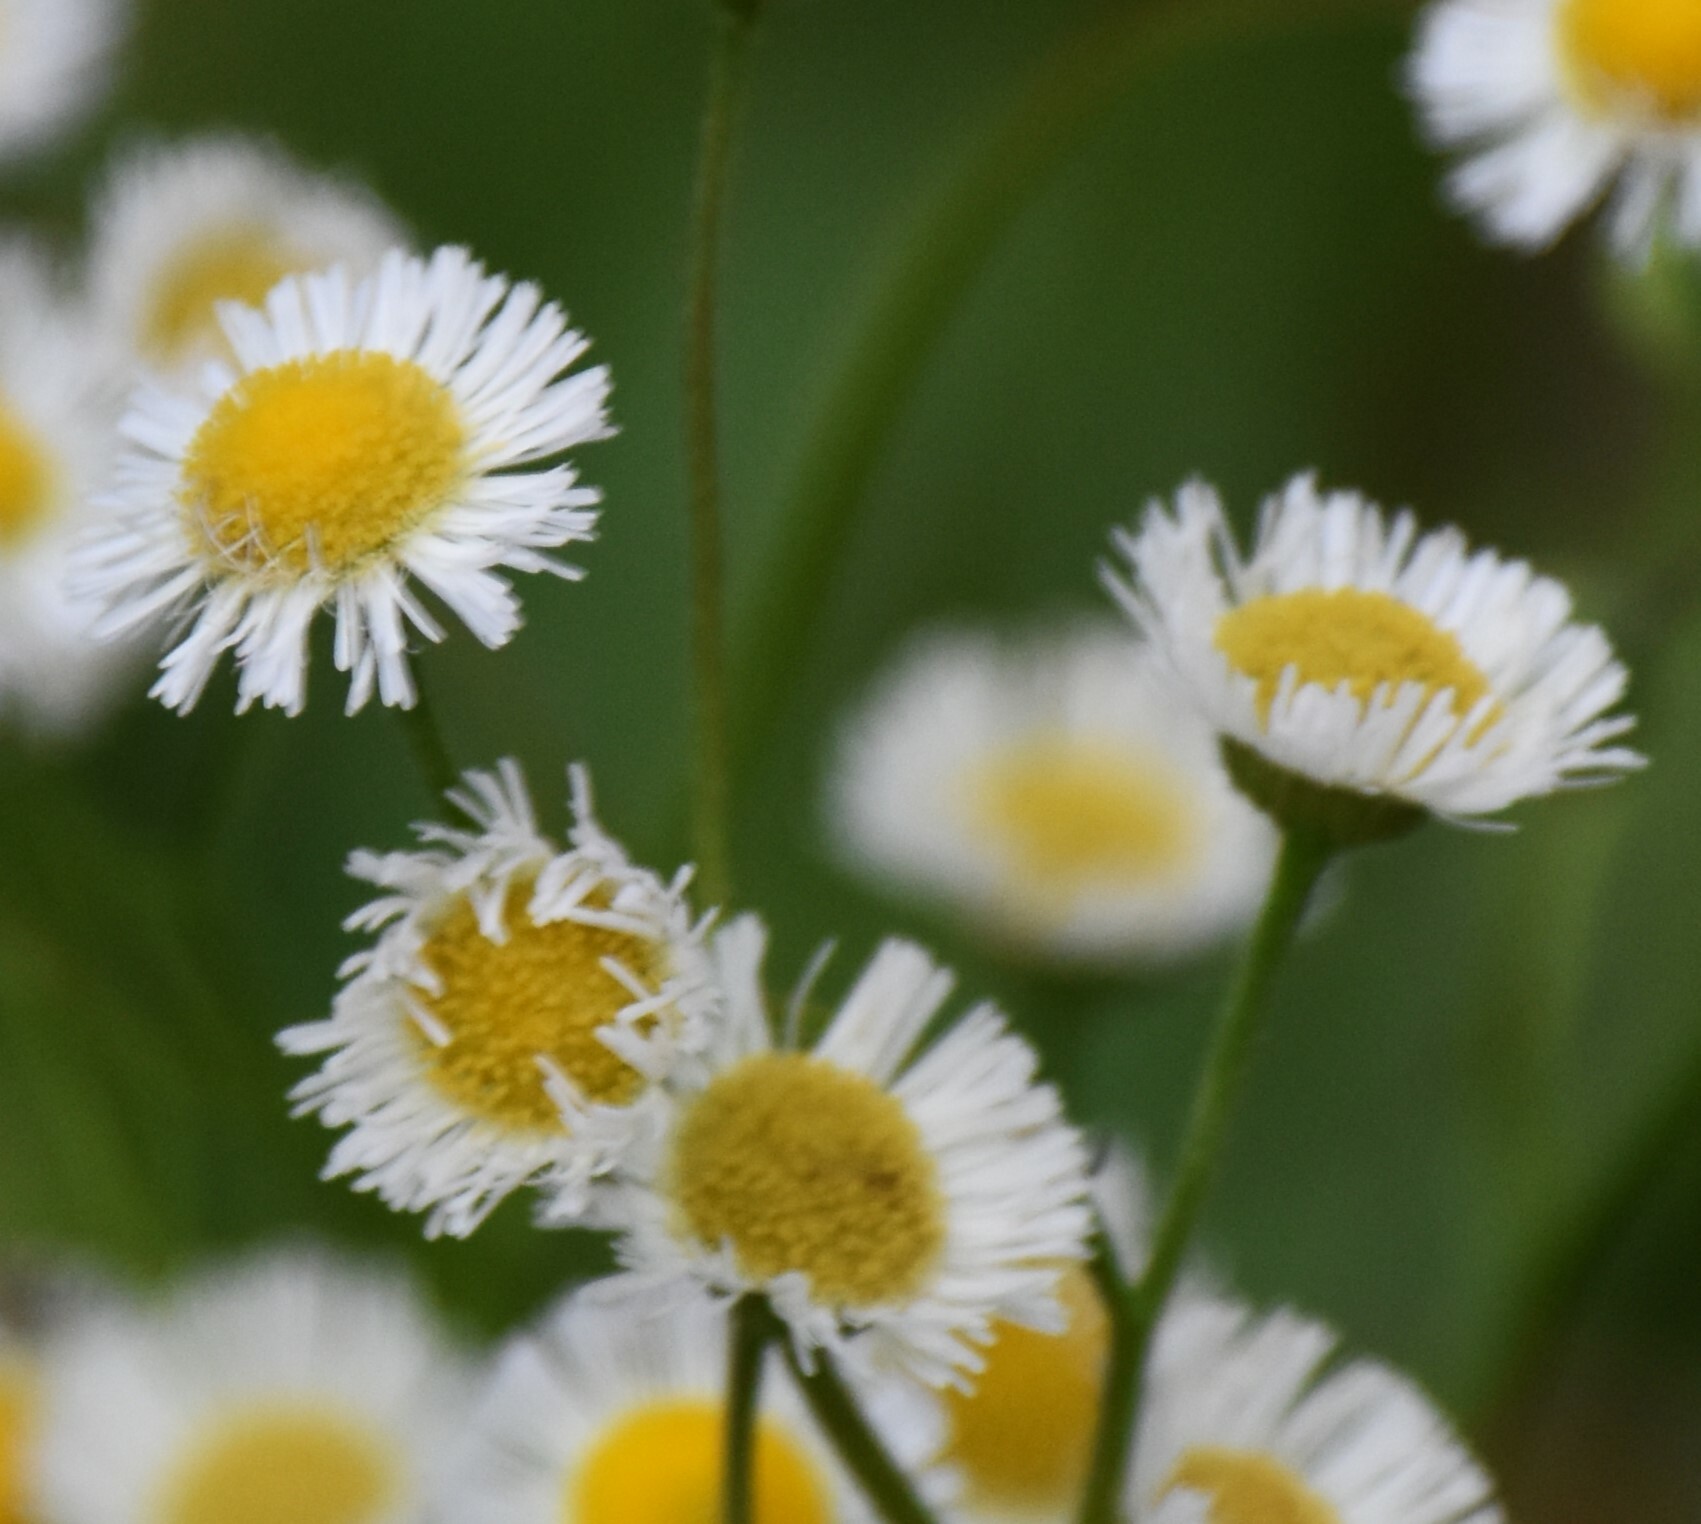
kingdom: Plantae
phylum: Tracheophyta
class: Magnoliopsida
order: Asterales
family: Asteraceae
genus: Erigeron
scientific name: Erigeron quercifolius
